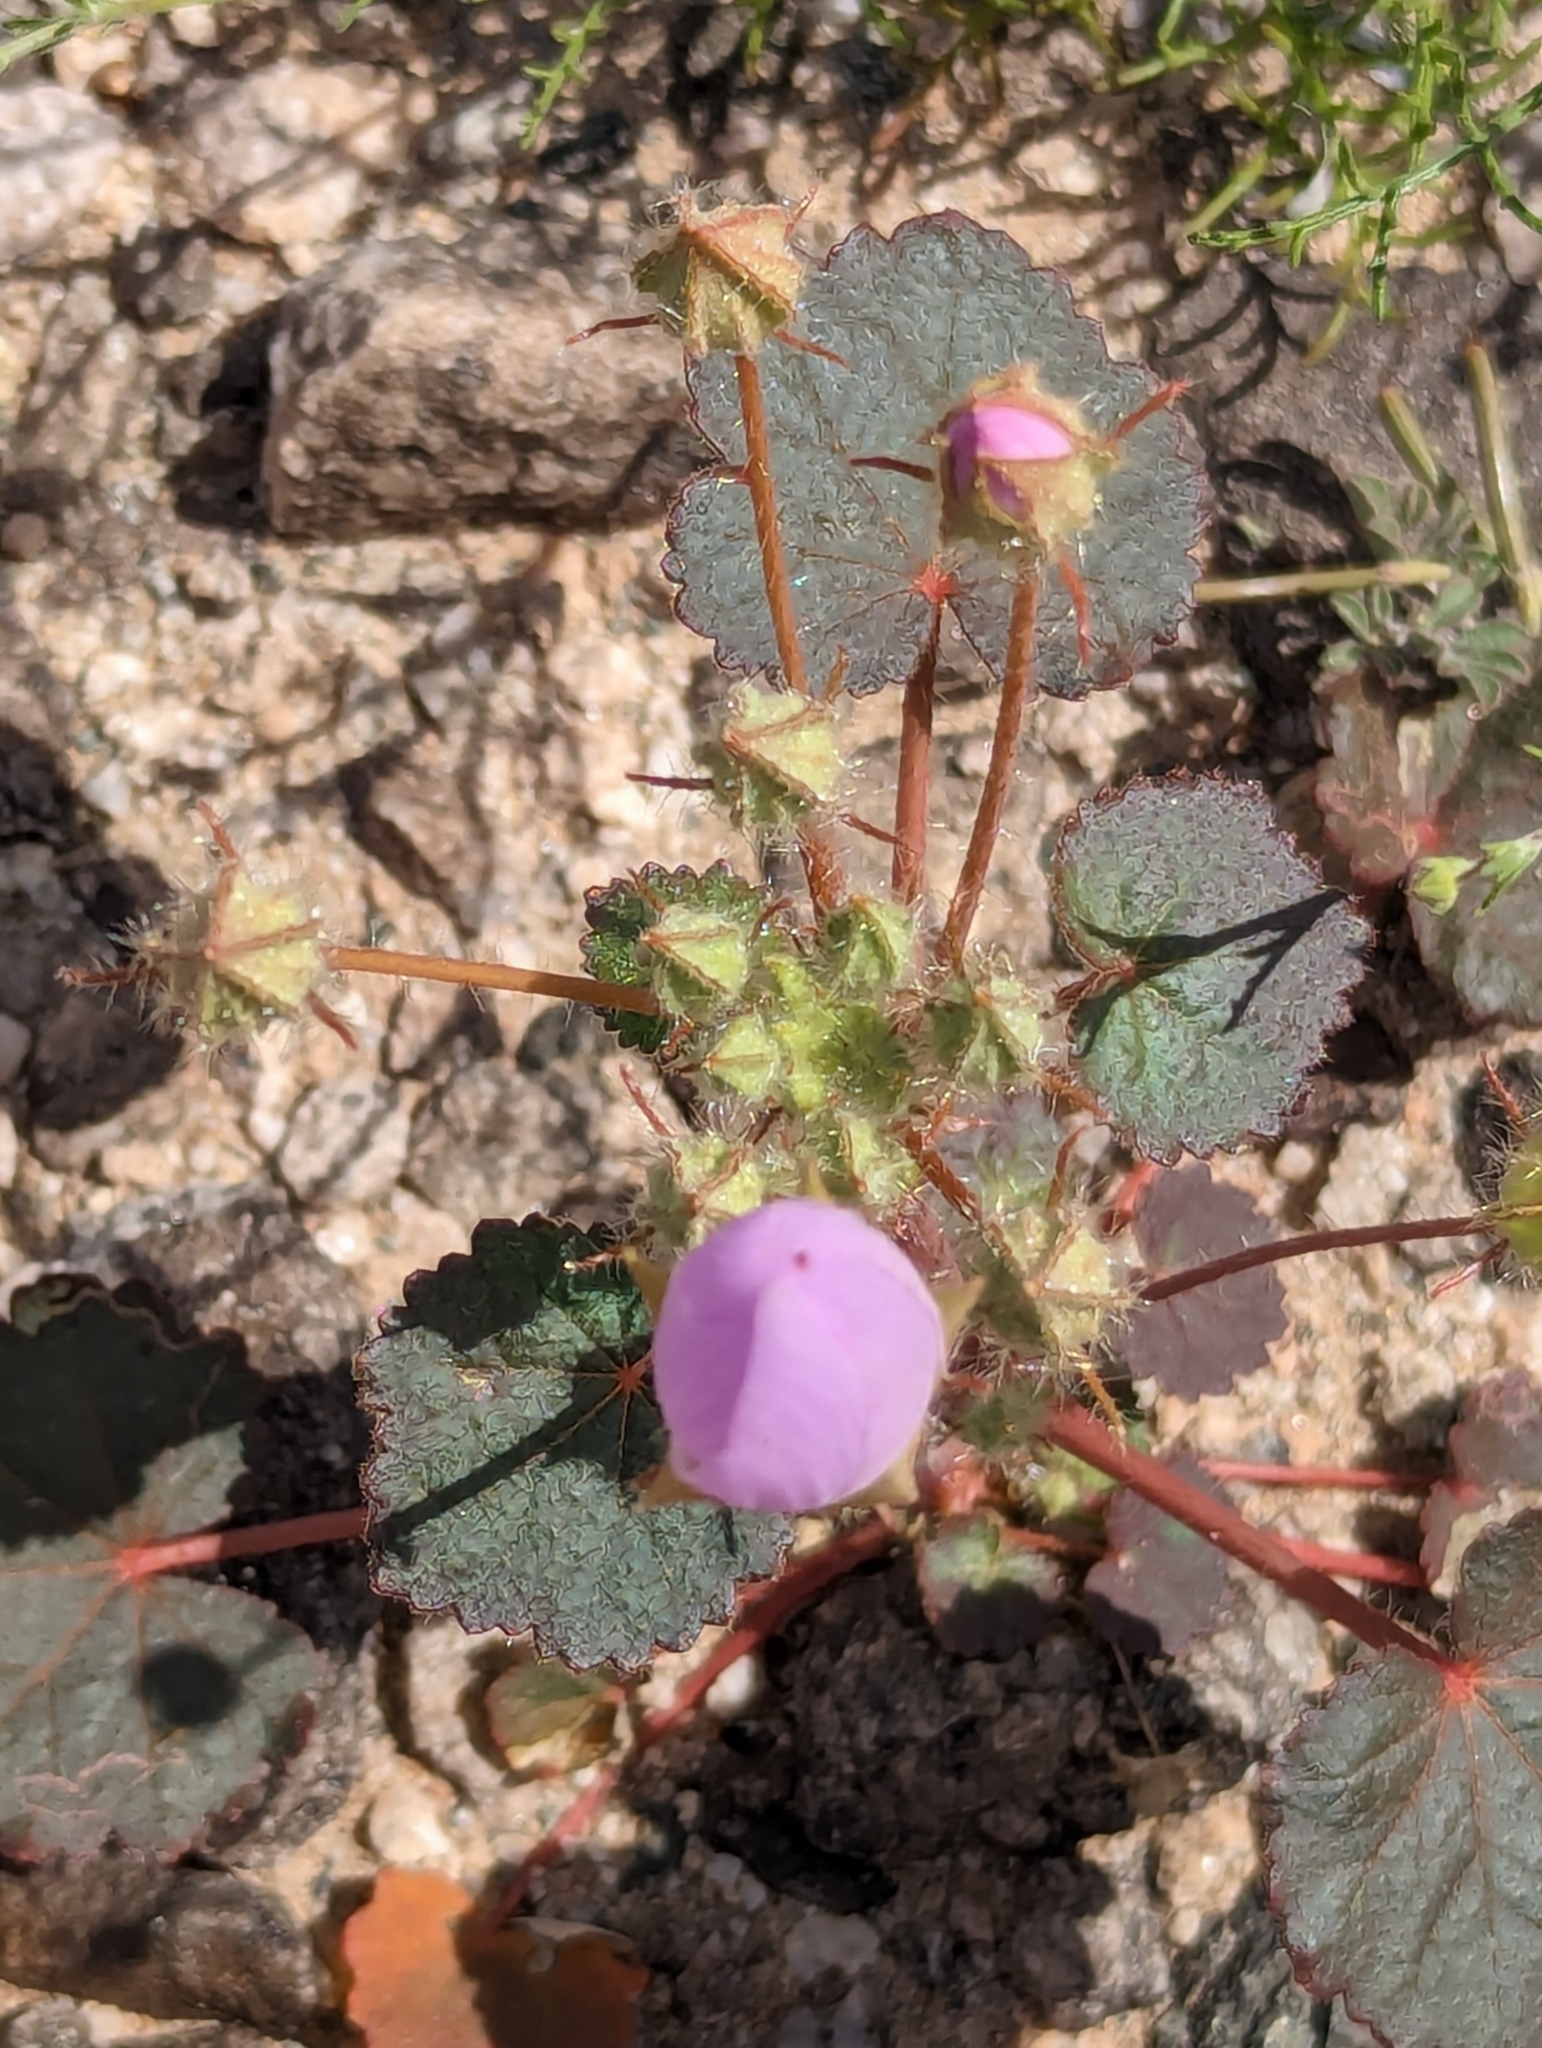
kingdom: Plantae
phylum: Tracheophyta
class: Magnoliopsida
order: Malvales
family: Malvaceae
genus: Eremalche
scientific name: Eremalche rotundifolia
